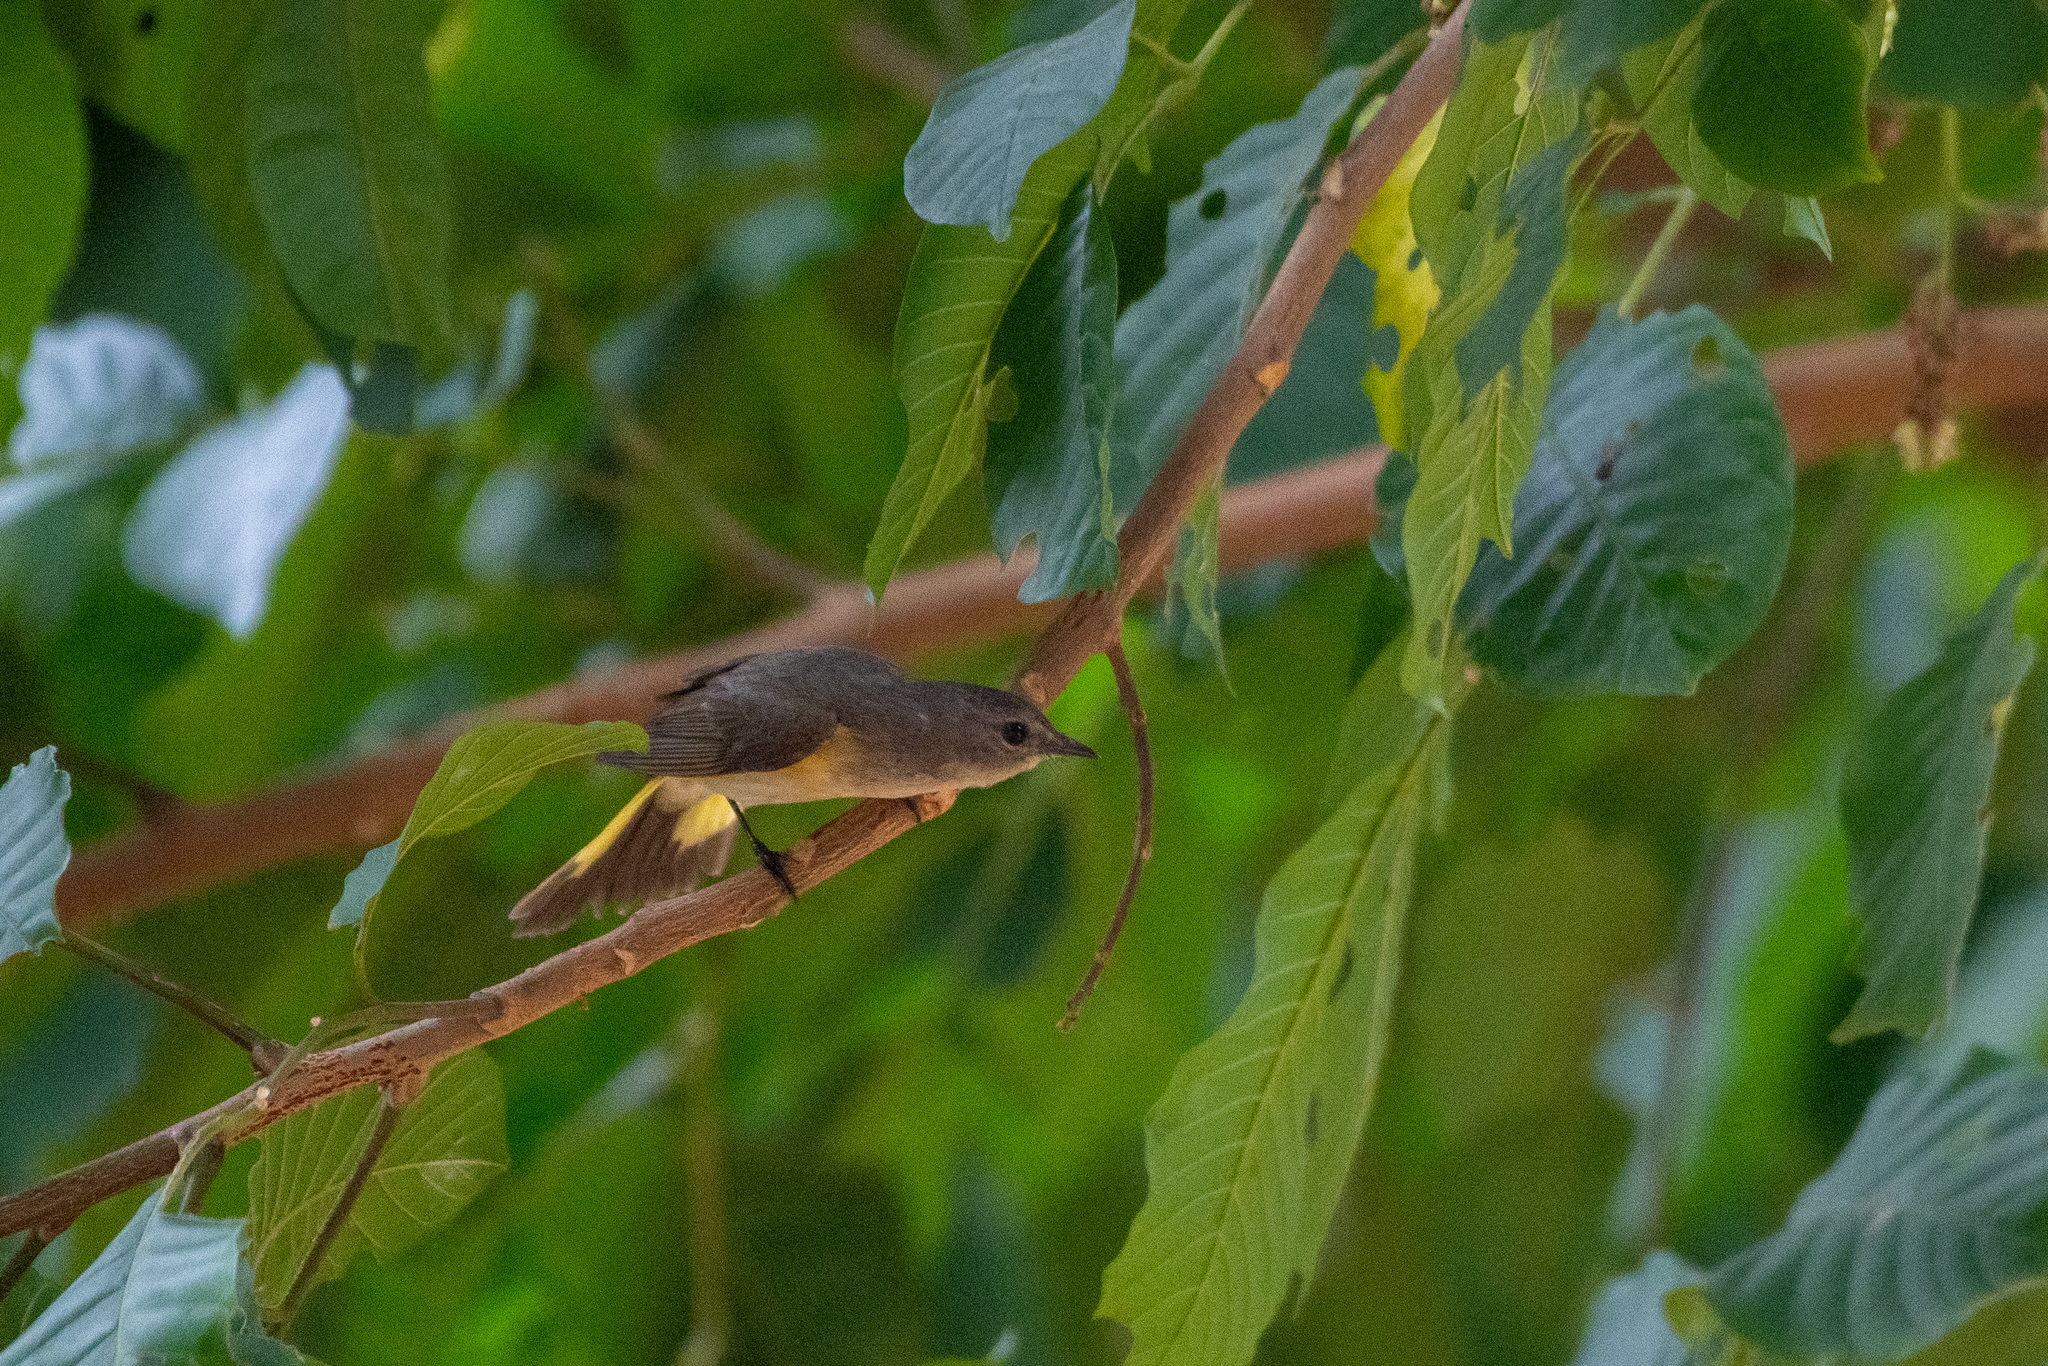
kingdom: Animalia
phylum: Chordata
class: Aves
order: Passeriformes
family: Parulidae
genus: Setophaga
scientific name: Setophaga ruticilla
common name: American redstart
